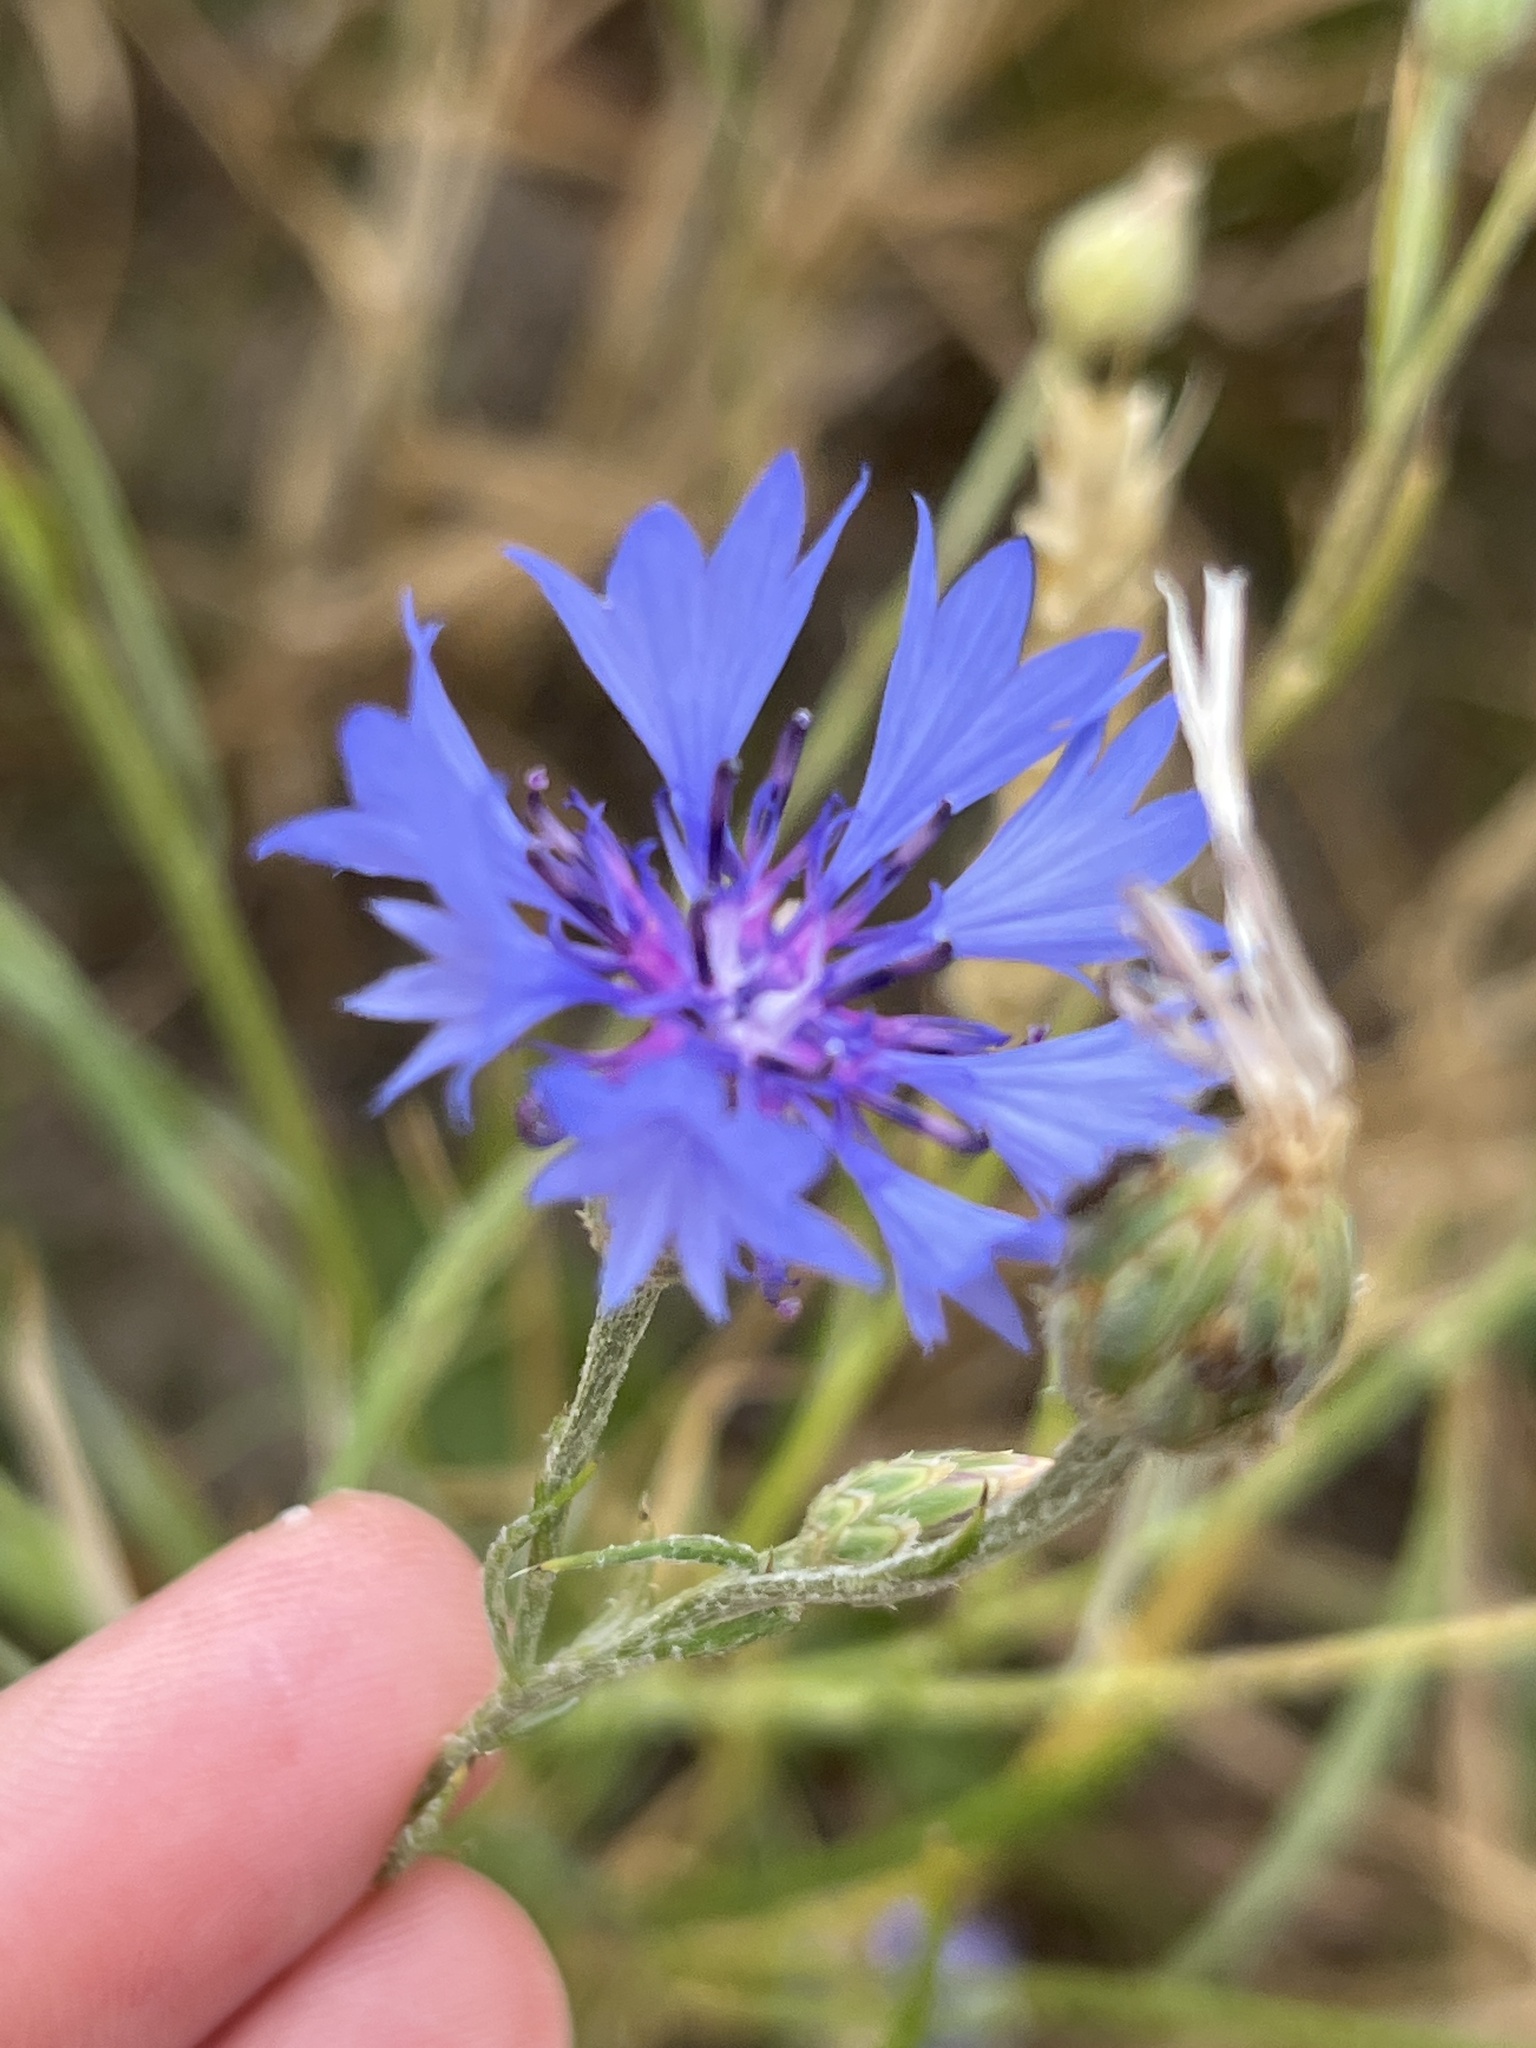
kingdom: Plantae
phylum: Tracheophyta
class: Magnoliopsida
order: Asterales
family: Asteraceae
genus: Centaurea
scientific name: Centaurea cyanus
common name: Cornflower
